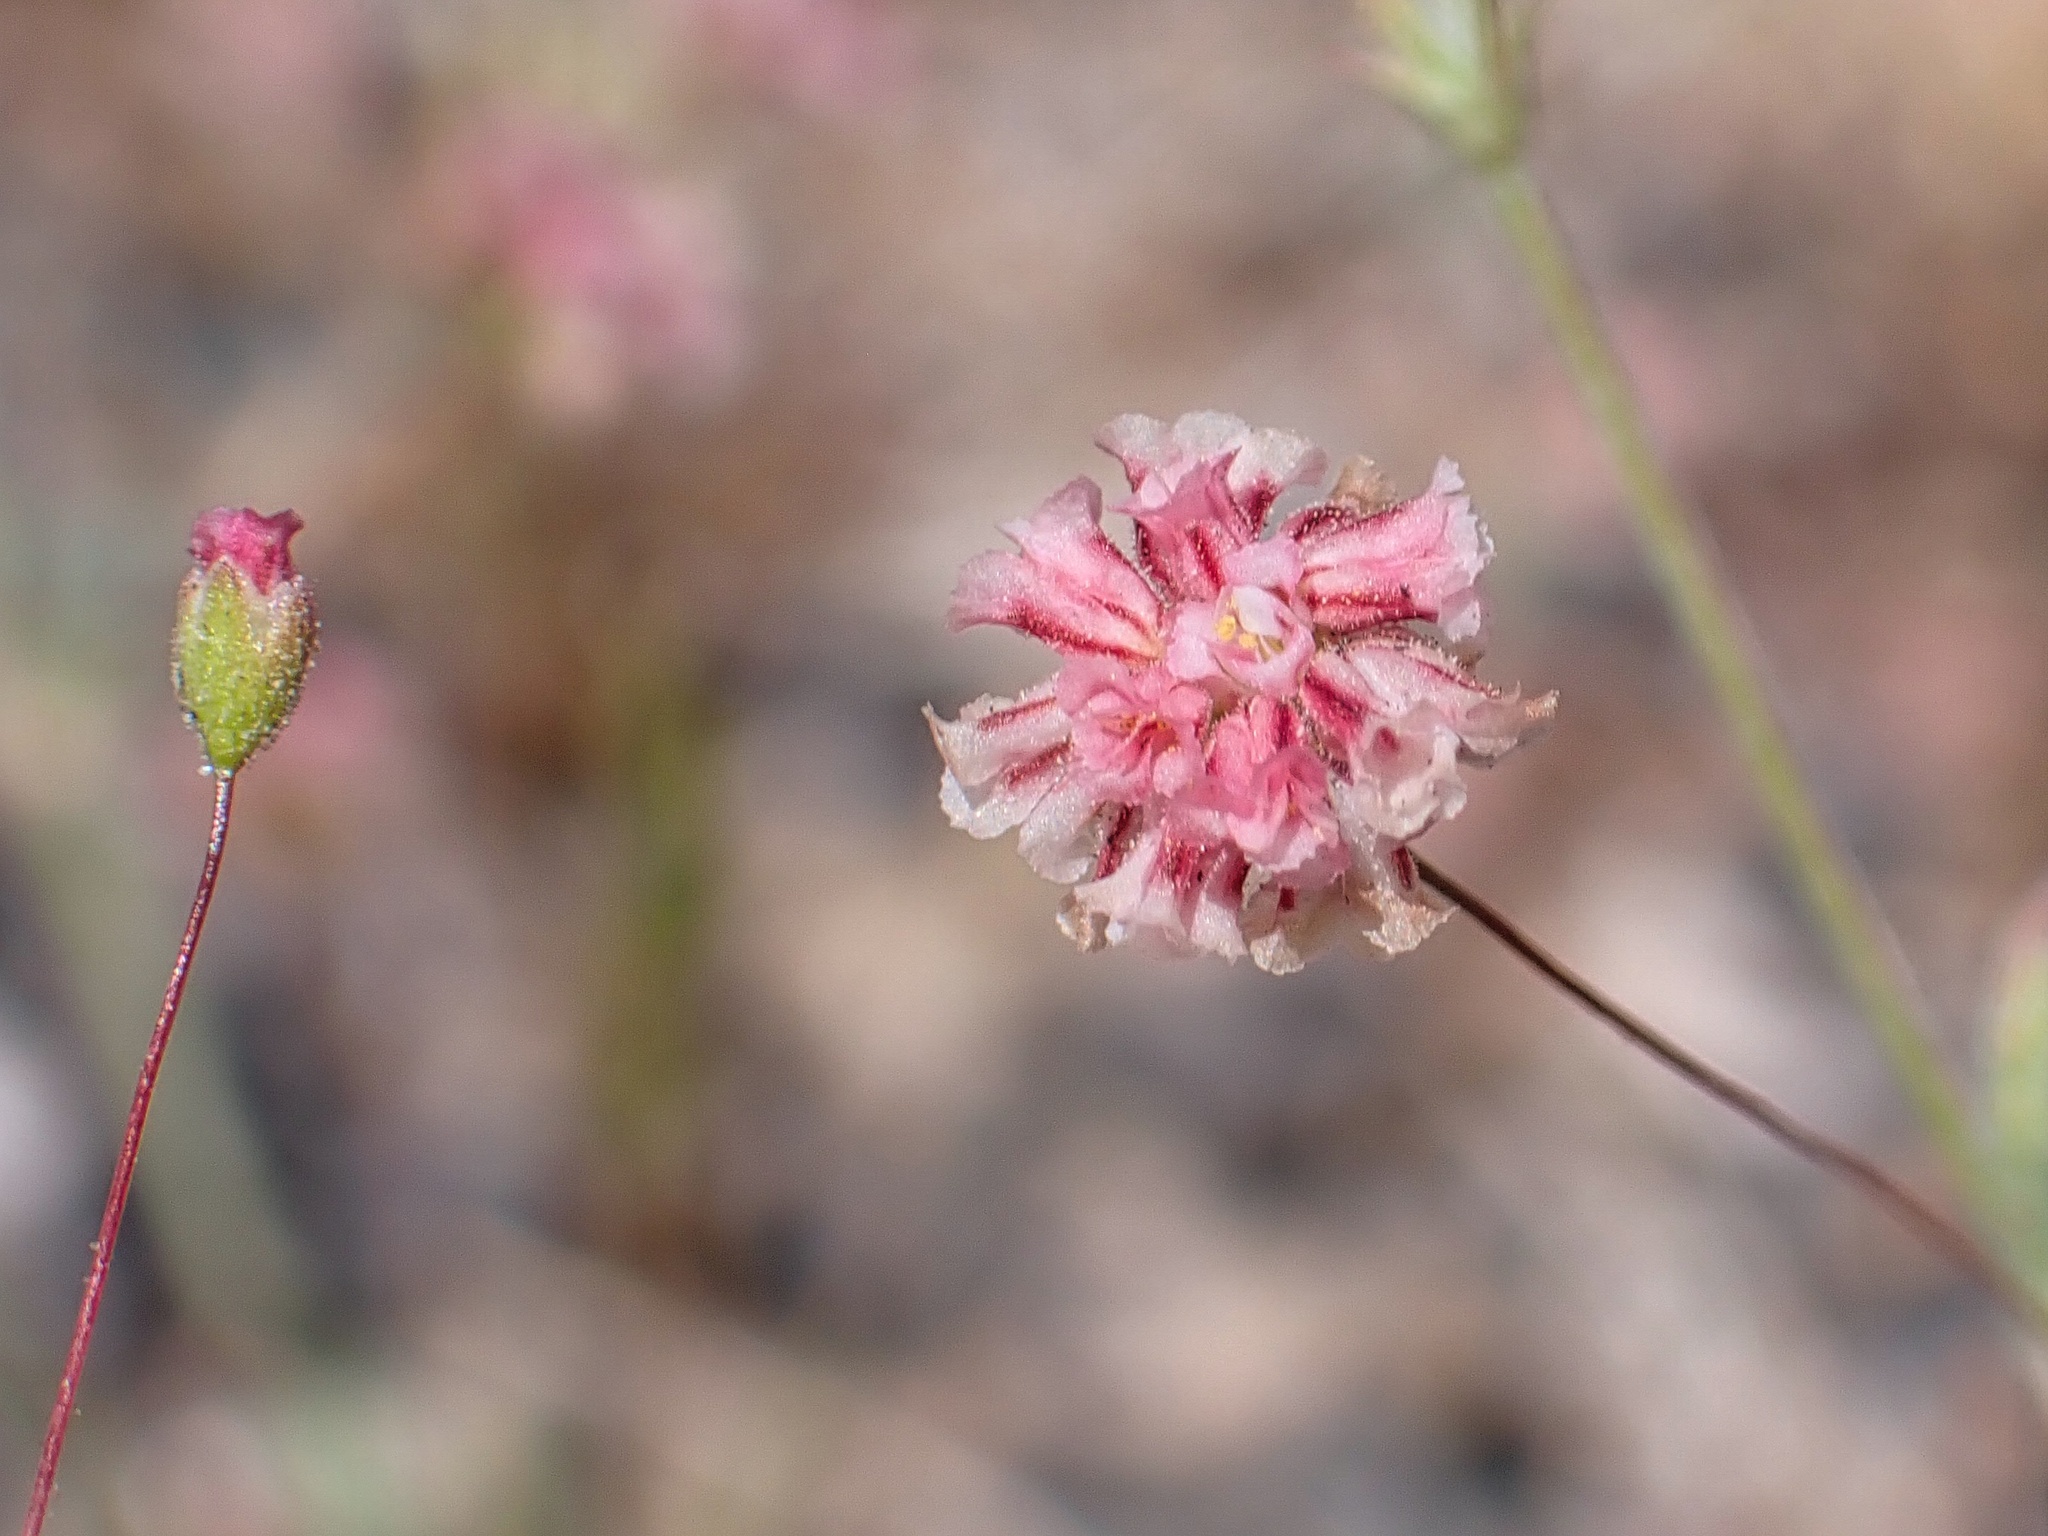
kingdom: Plantae
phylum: Tracheophyta
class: Magnoliopsida
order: Caryophyllales
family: Polygonaceae
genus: Eriogonum
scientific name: Eriogonum maculatum
